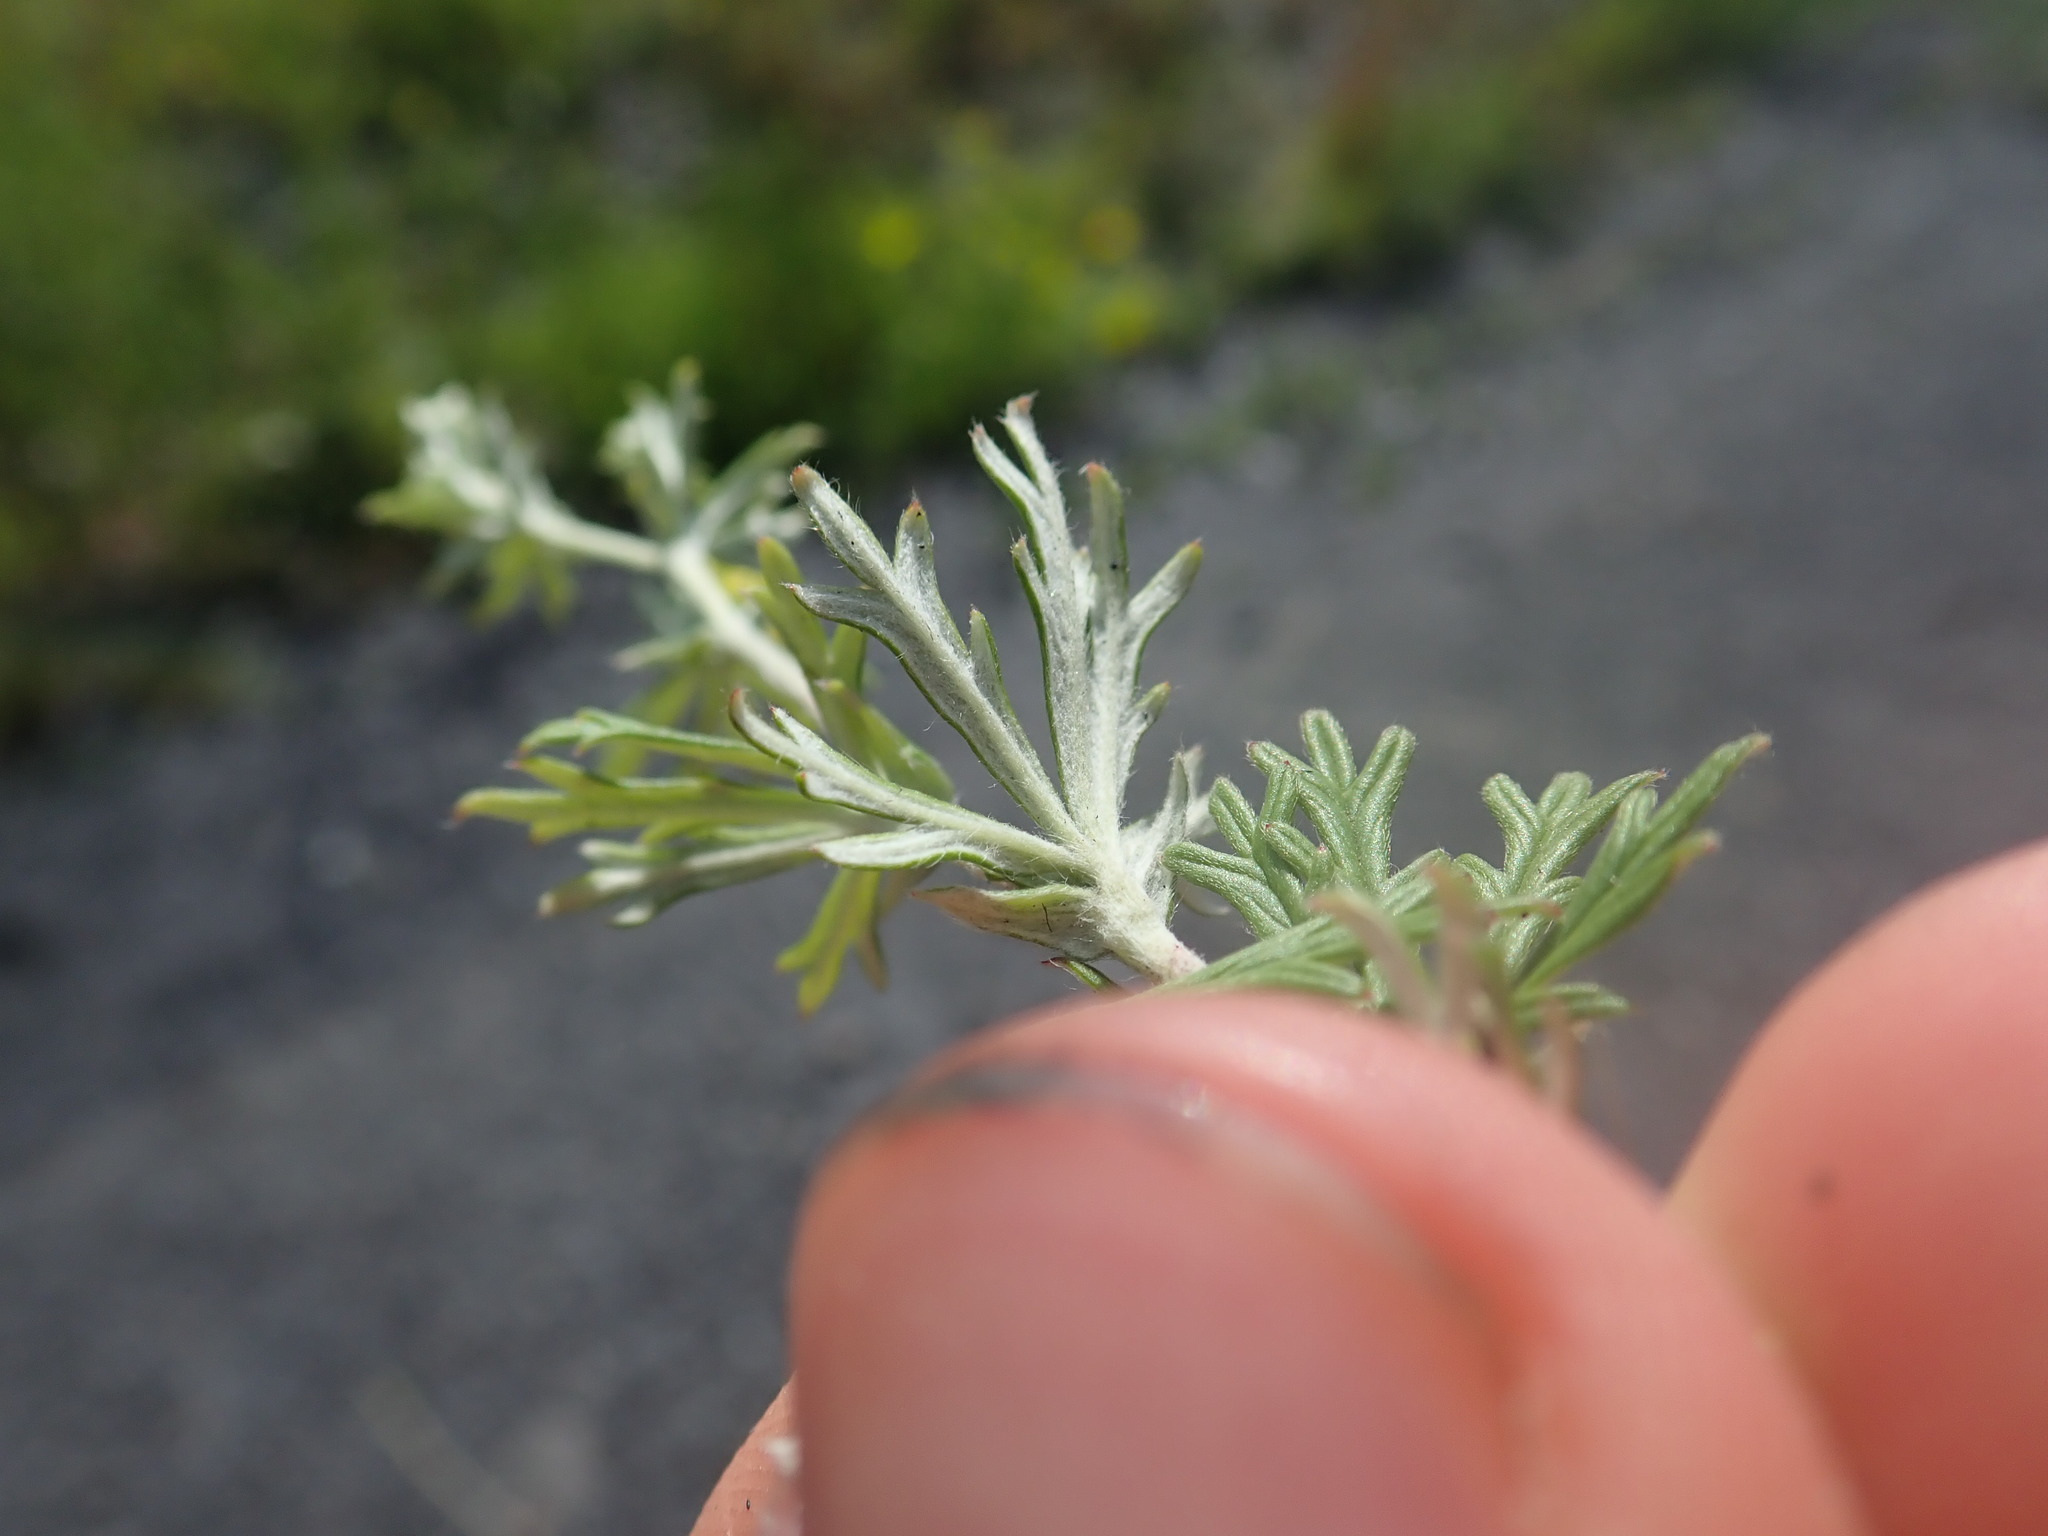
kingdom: Plantae
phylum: Tracheophyta
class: Magnoliopsida
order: Rosales
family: Rosaceae
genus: Potentilla
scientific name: Potentilla argentea
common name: Hoary cinquefoil
